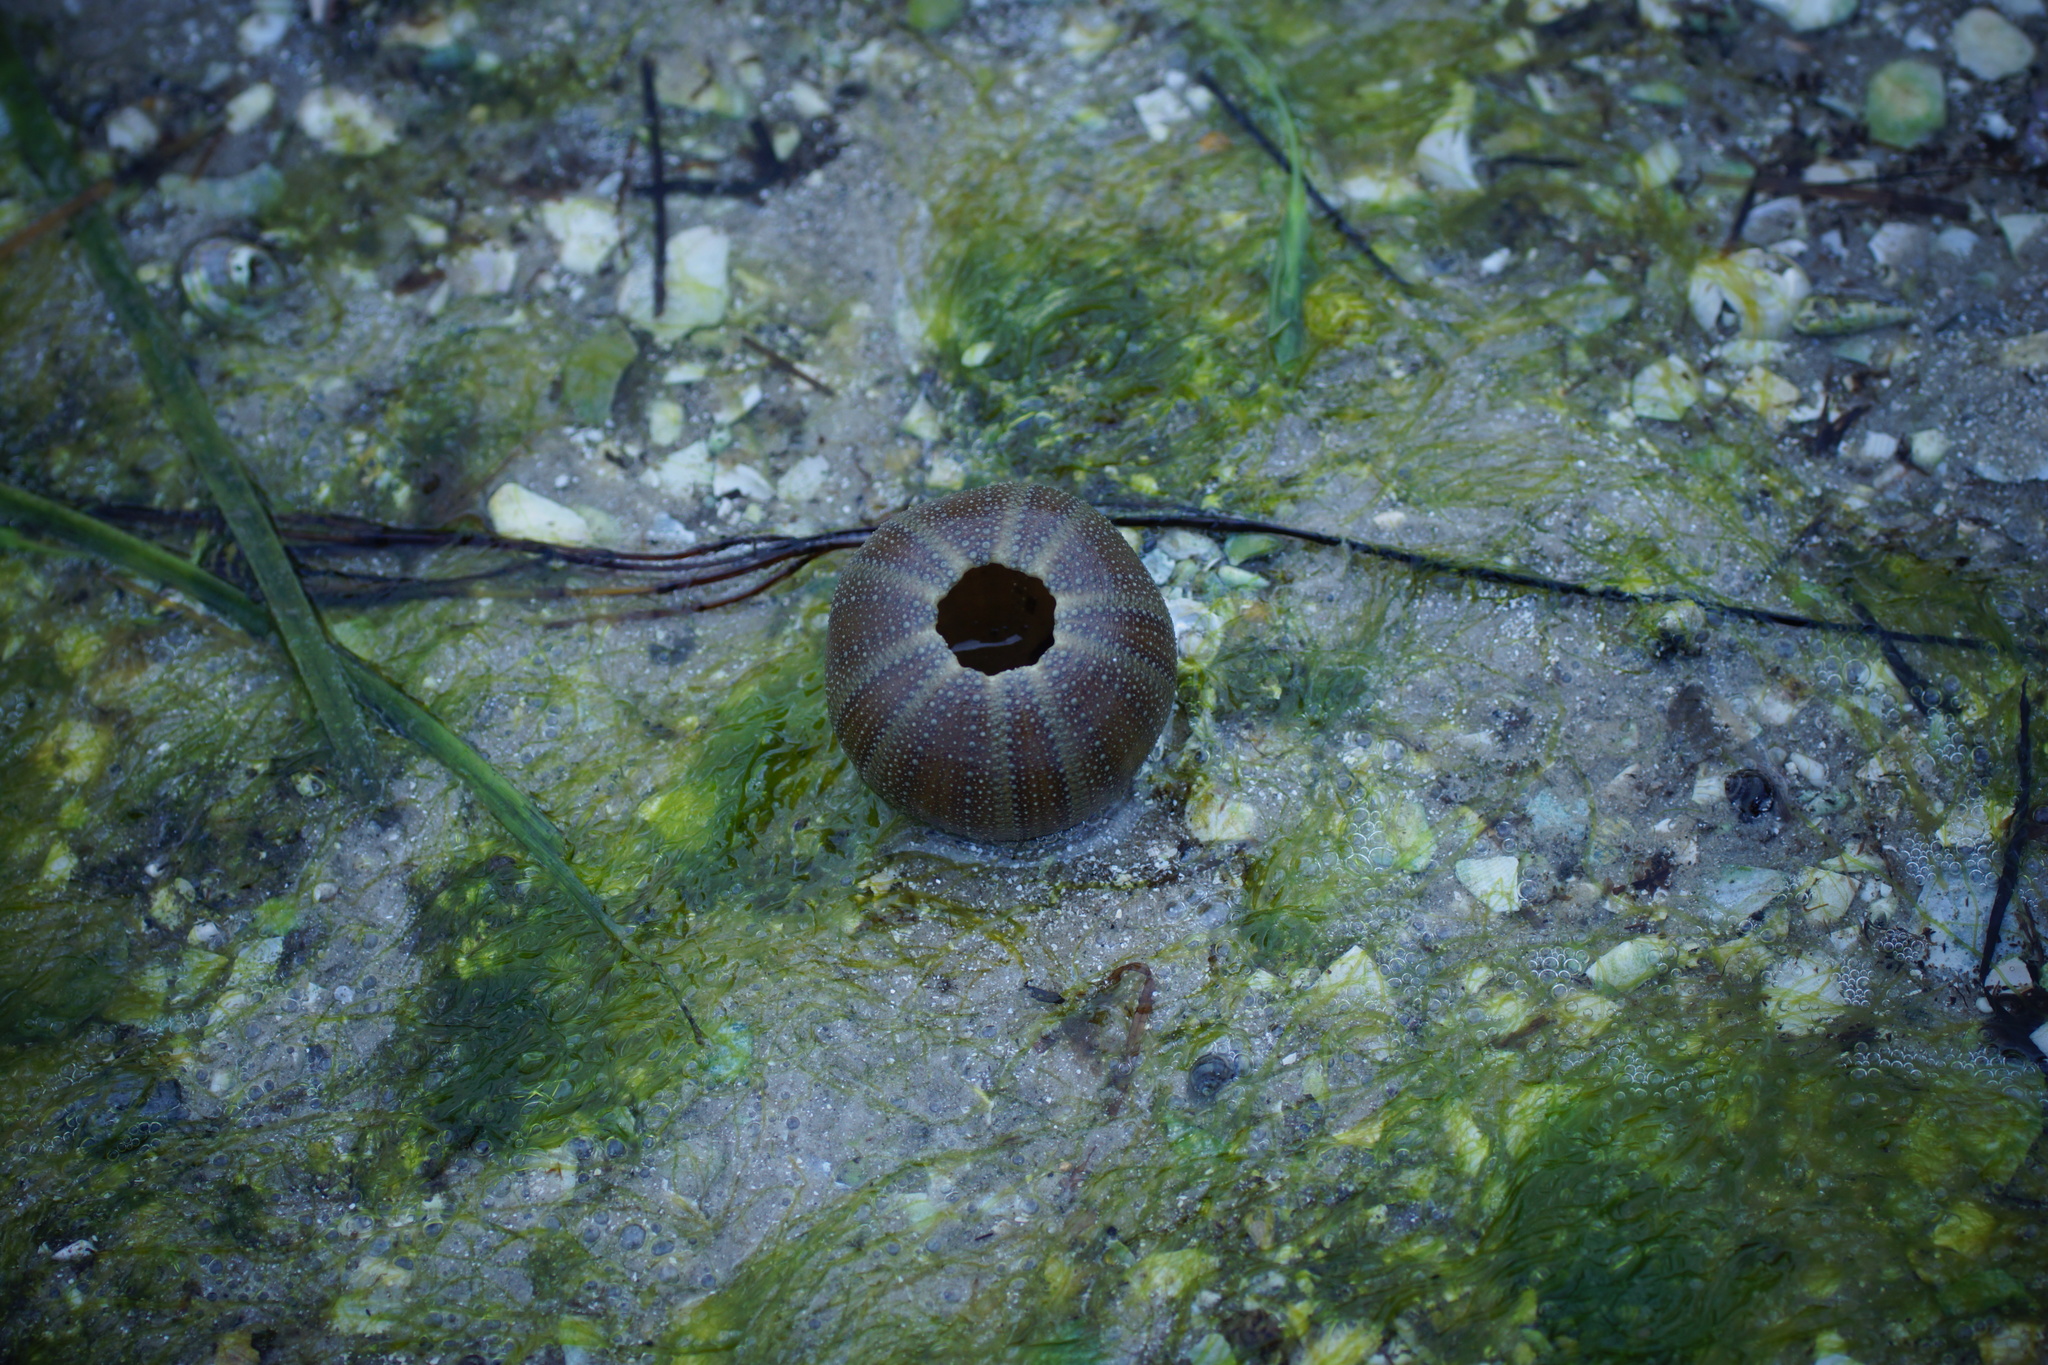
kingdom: Animalia
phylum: Echinodermata
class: Echinoidea
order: Camarodonta
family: Temnopleuridae
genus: Amblypneustes
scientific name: Amblypneustes ovum
